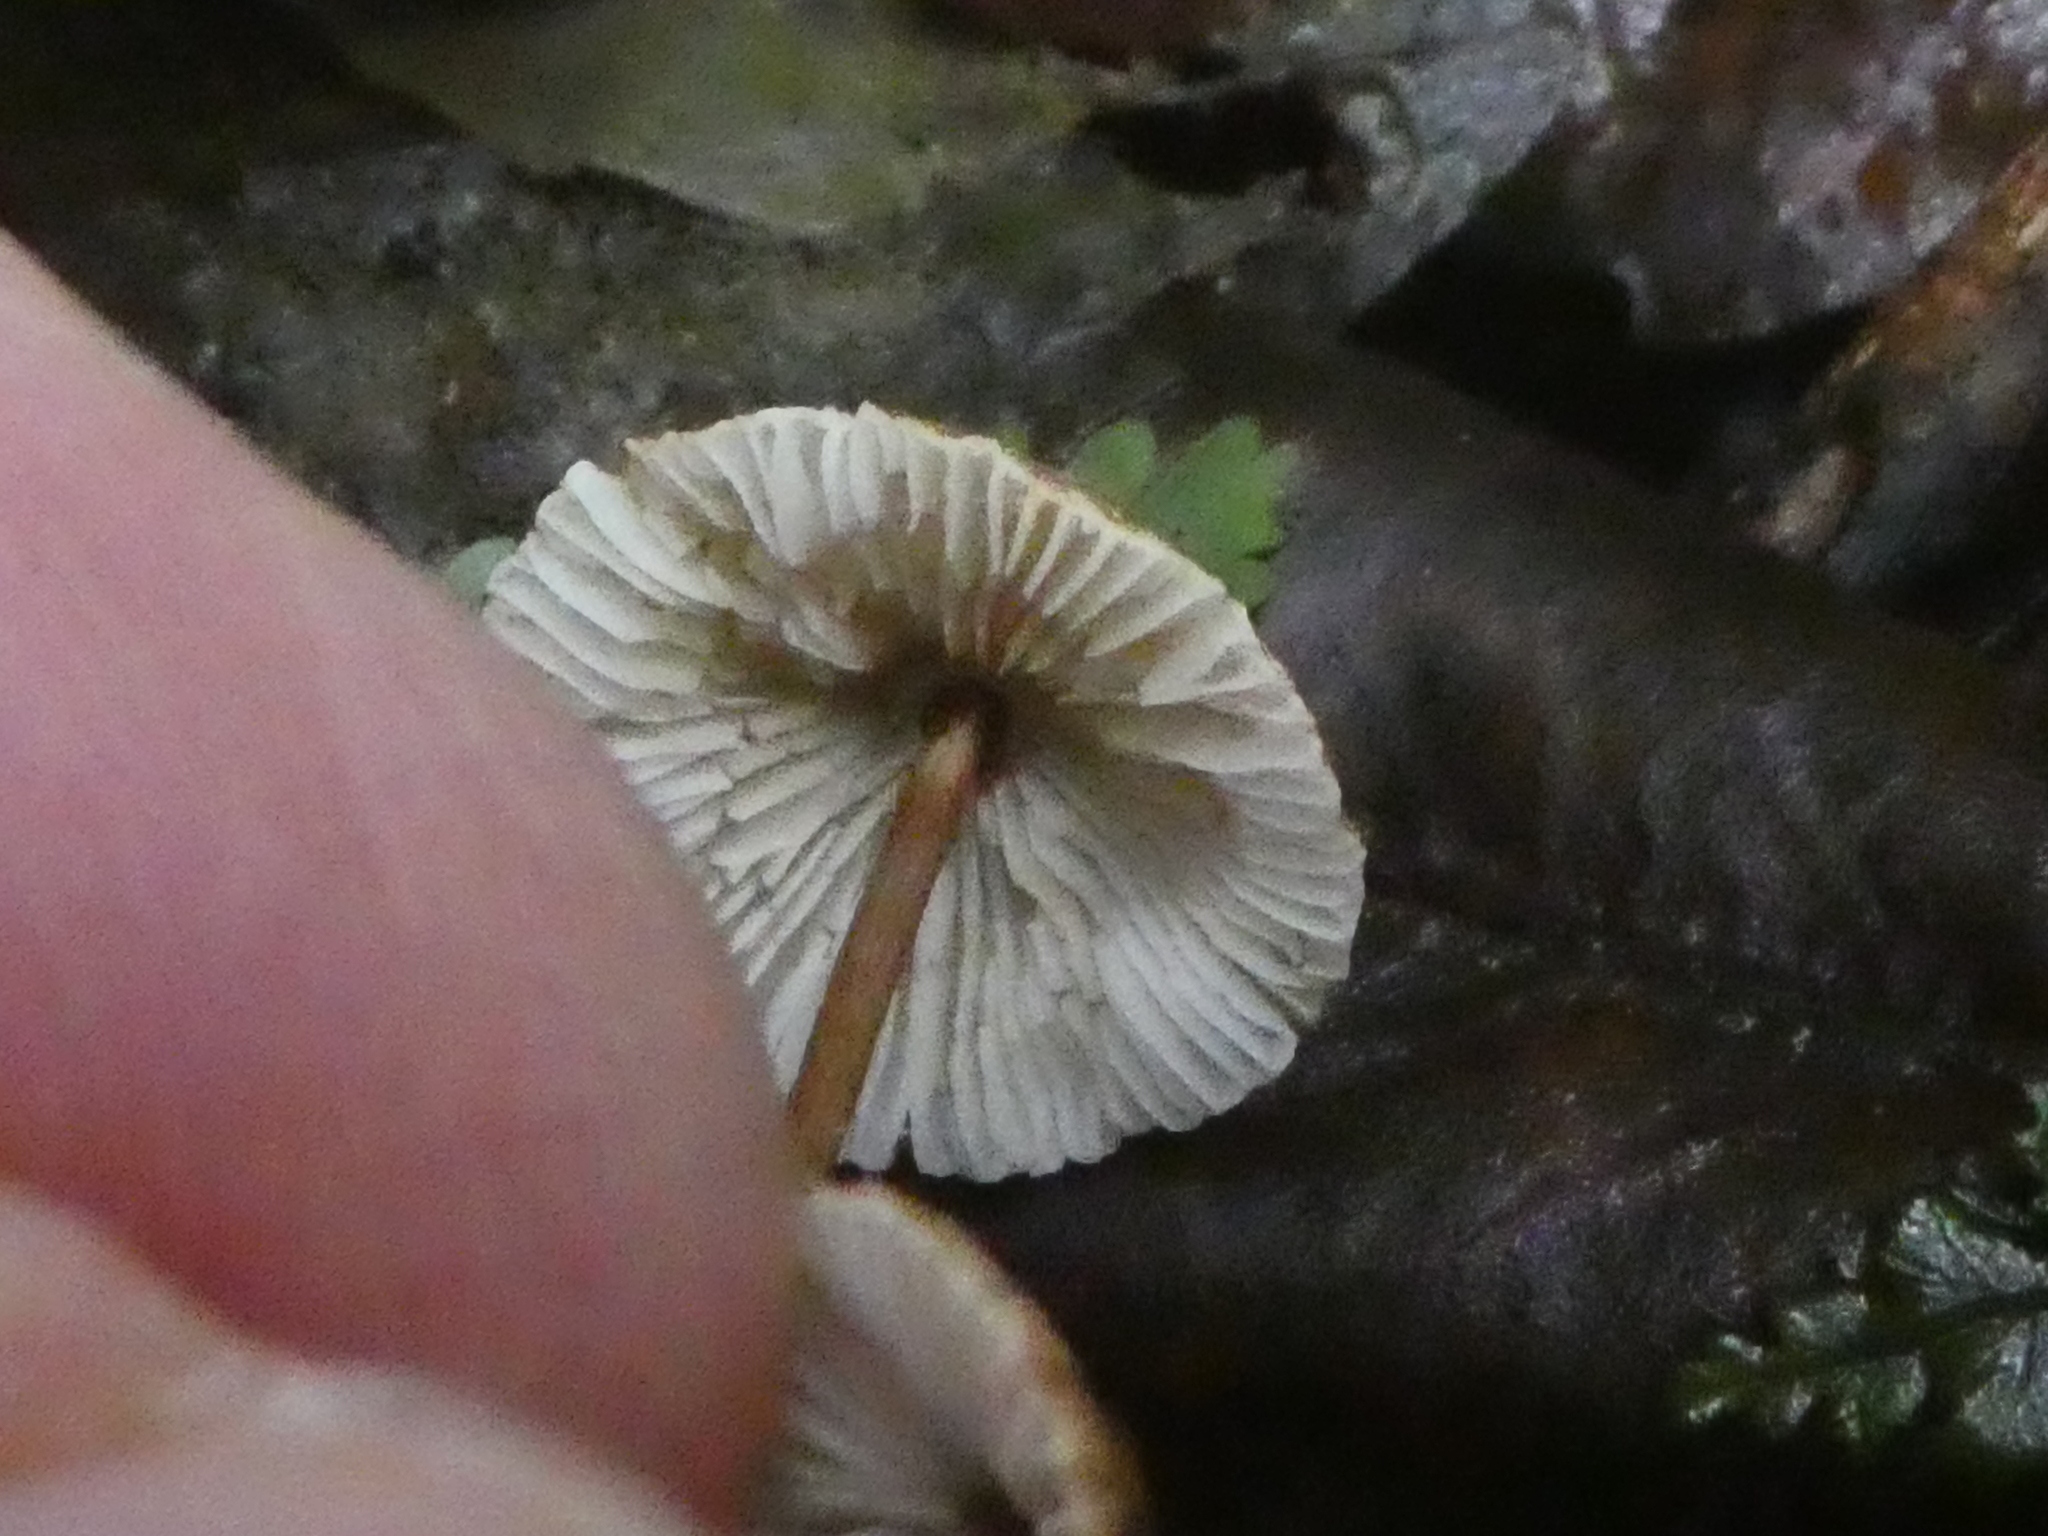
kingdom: Fungi
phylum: Basidiomycota
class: Agaricomycetes
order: Agaricales
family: Marasmiaceae
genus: Crinipellis
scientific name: Crinipellis procera
